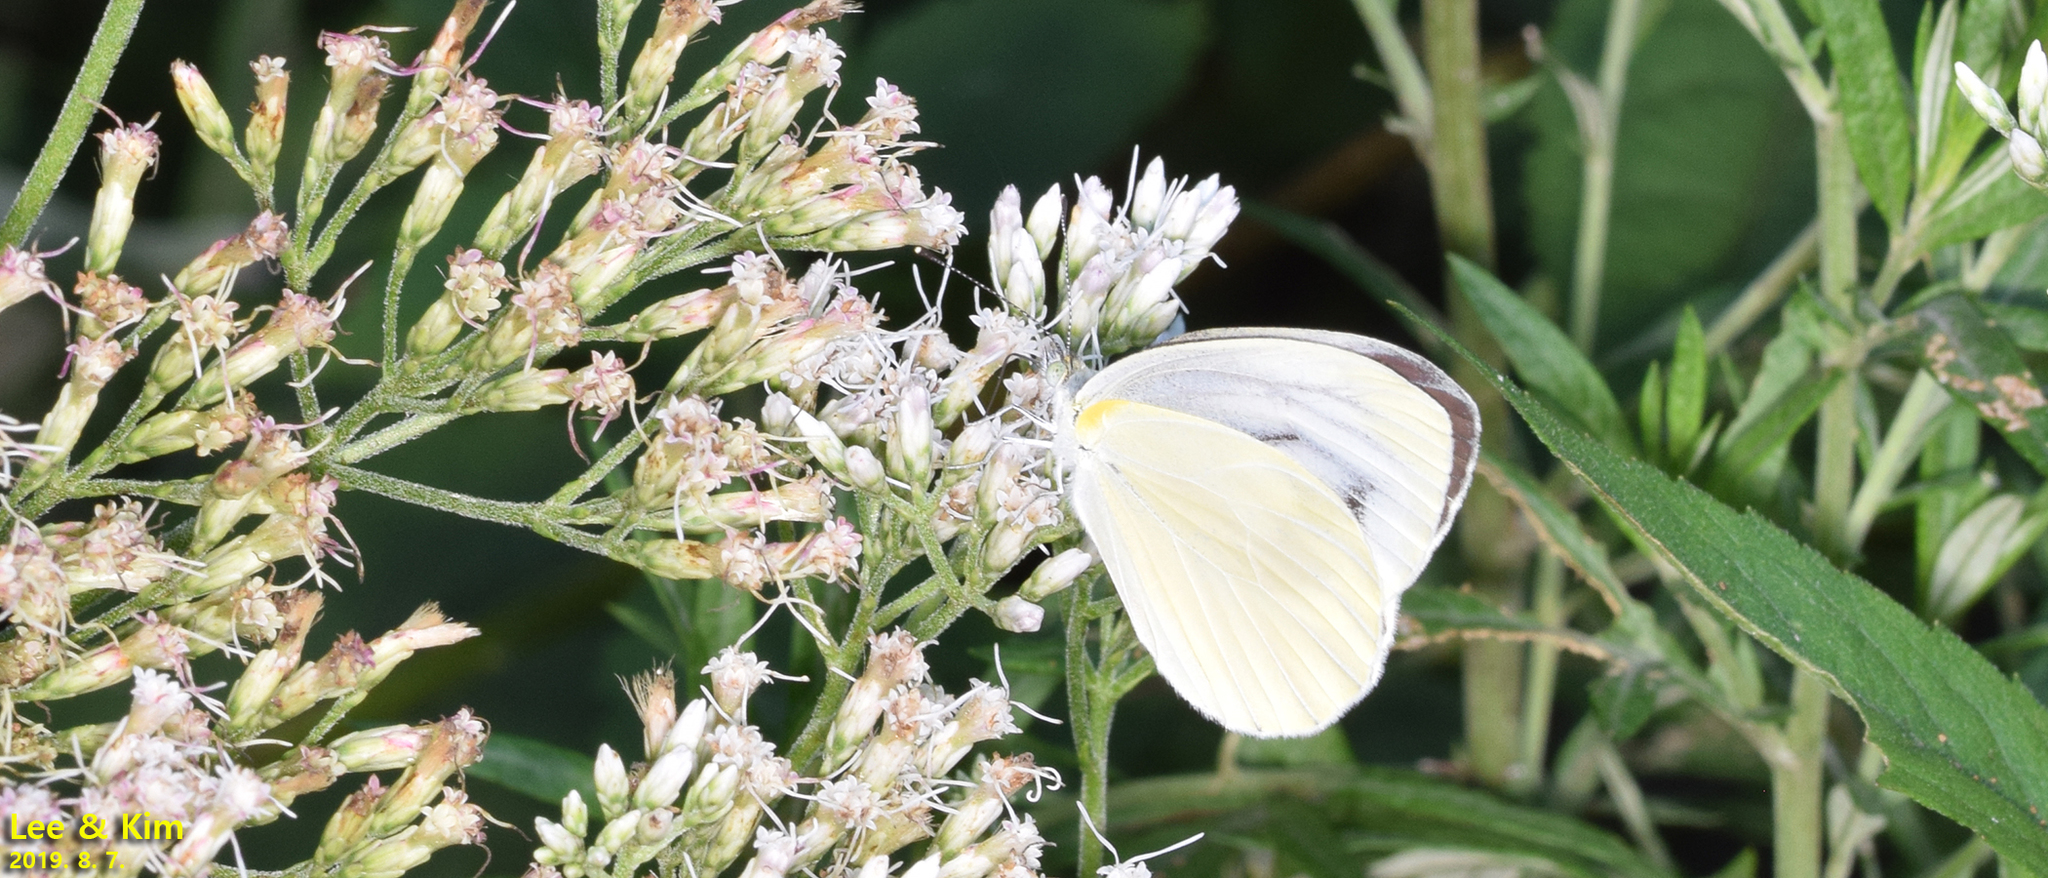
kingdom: Animalia
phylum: Arthropoda
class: Insecta
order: Lepidoptera
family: Pieridae
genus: Pieris
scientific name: Pieris melete
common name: Asian green-veined white
